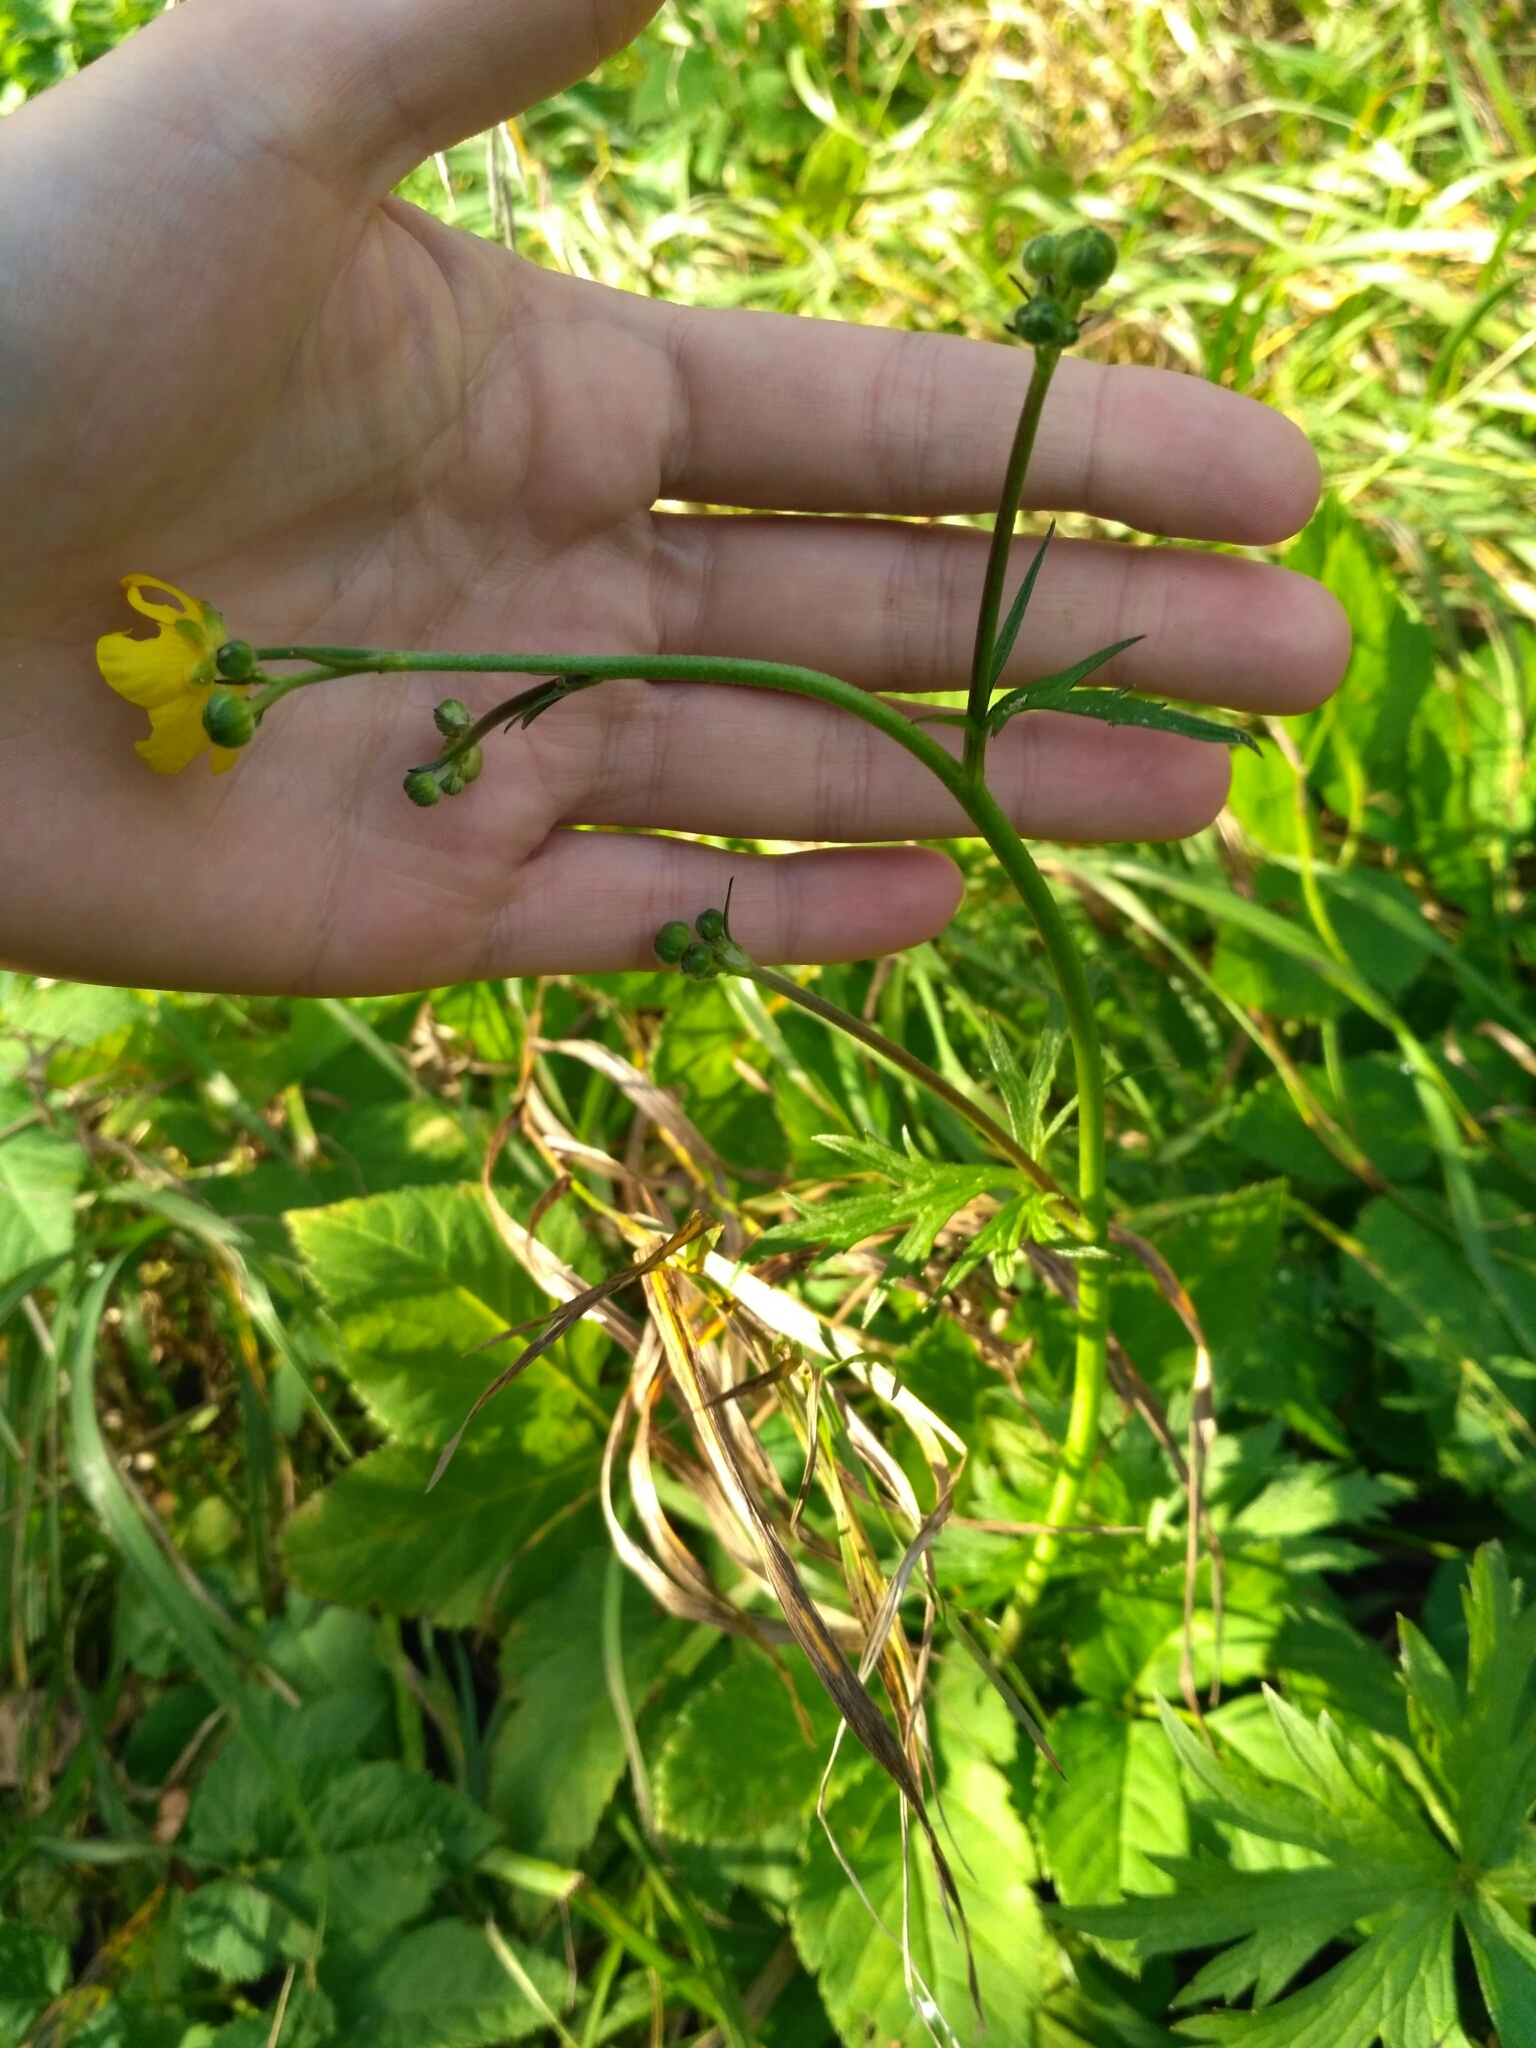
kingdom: Plantae
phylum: Tracheophyta
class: Magnoliopsida
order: Ranunculales
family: Ranunculaceae
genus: Ranunculus
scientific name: Ranunculus polyanthemos
